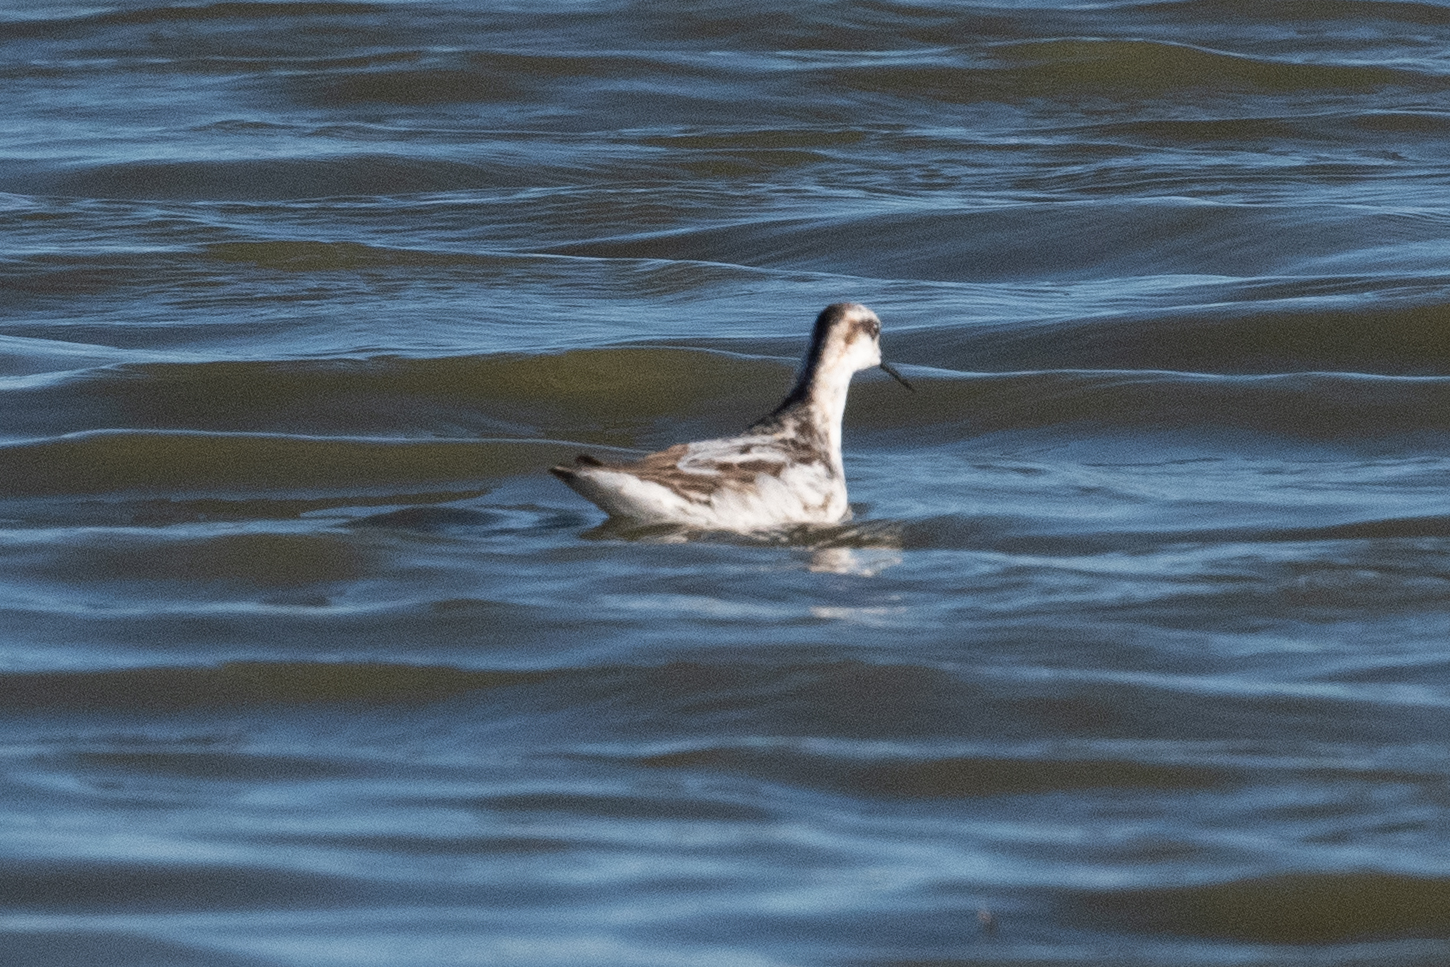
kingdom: Animalia
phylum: Chordata
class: Aves
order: Charadriiformes
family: Scolopacidae
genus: Phalaropus
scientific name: Phalaropus lobatus
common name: Red-necked phalarope
